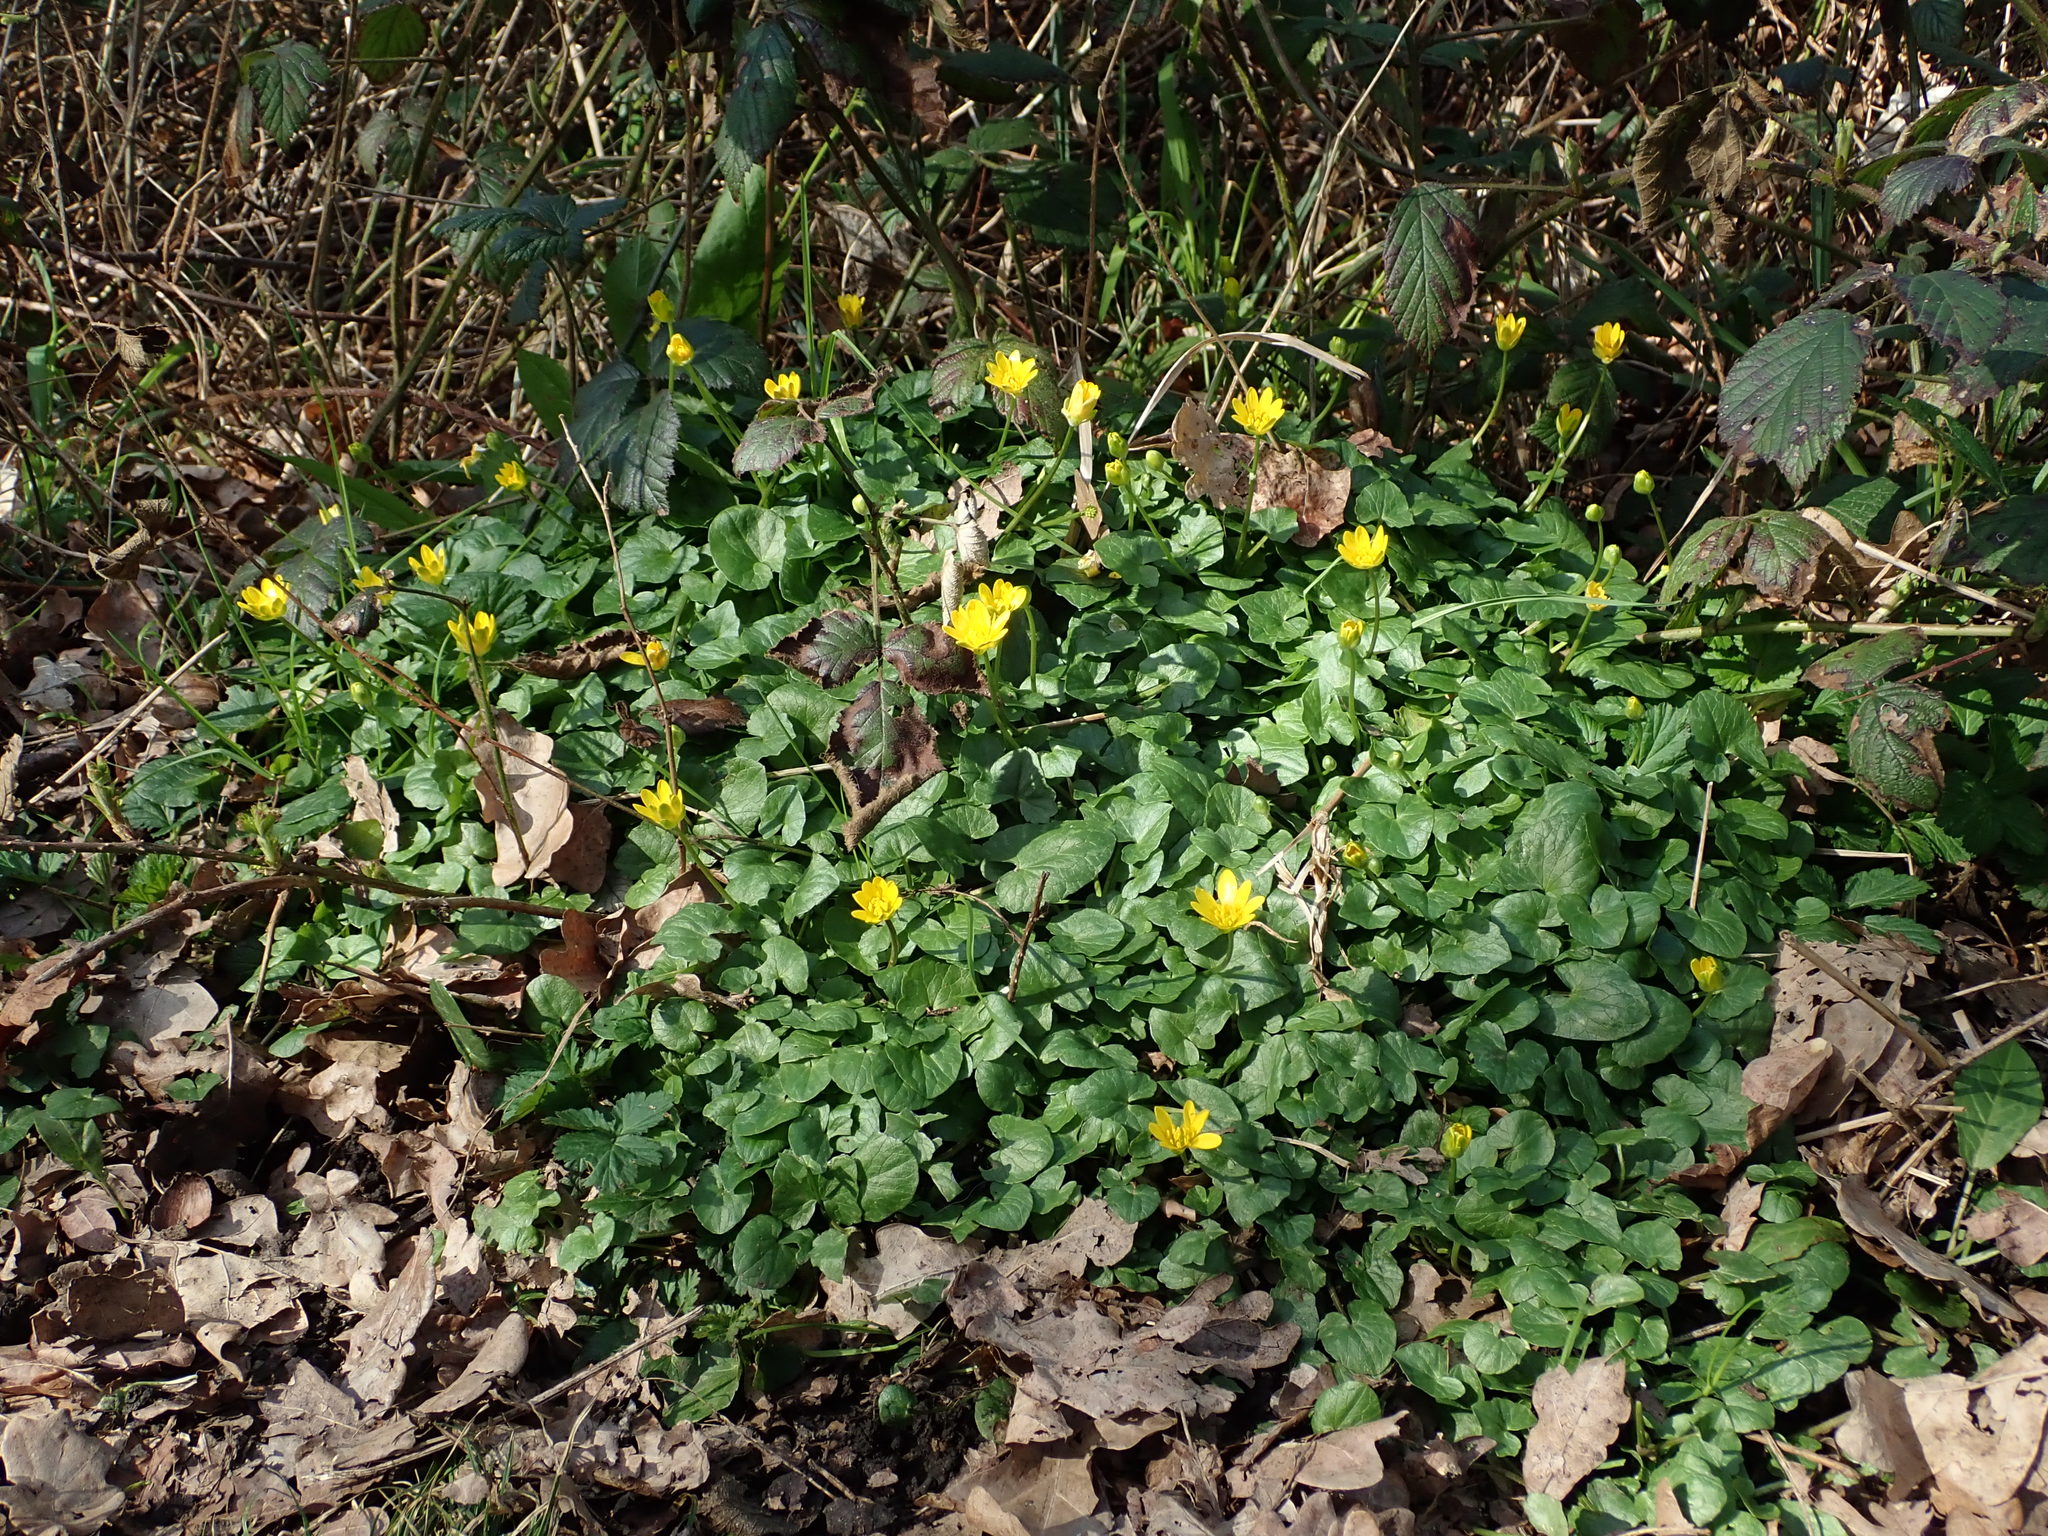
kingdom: Plantae
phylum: Tracheophyta
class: Magnoliopsida
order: Ranunculales
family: Ranunculaceae
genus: Ficaria
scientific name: Ficaria verna
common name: Lesser celandine
